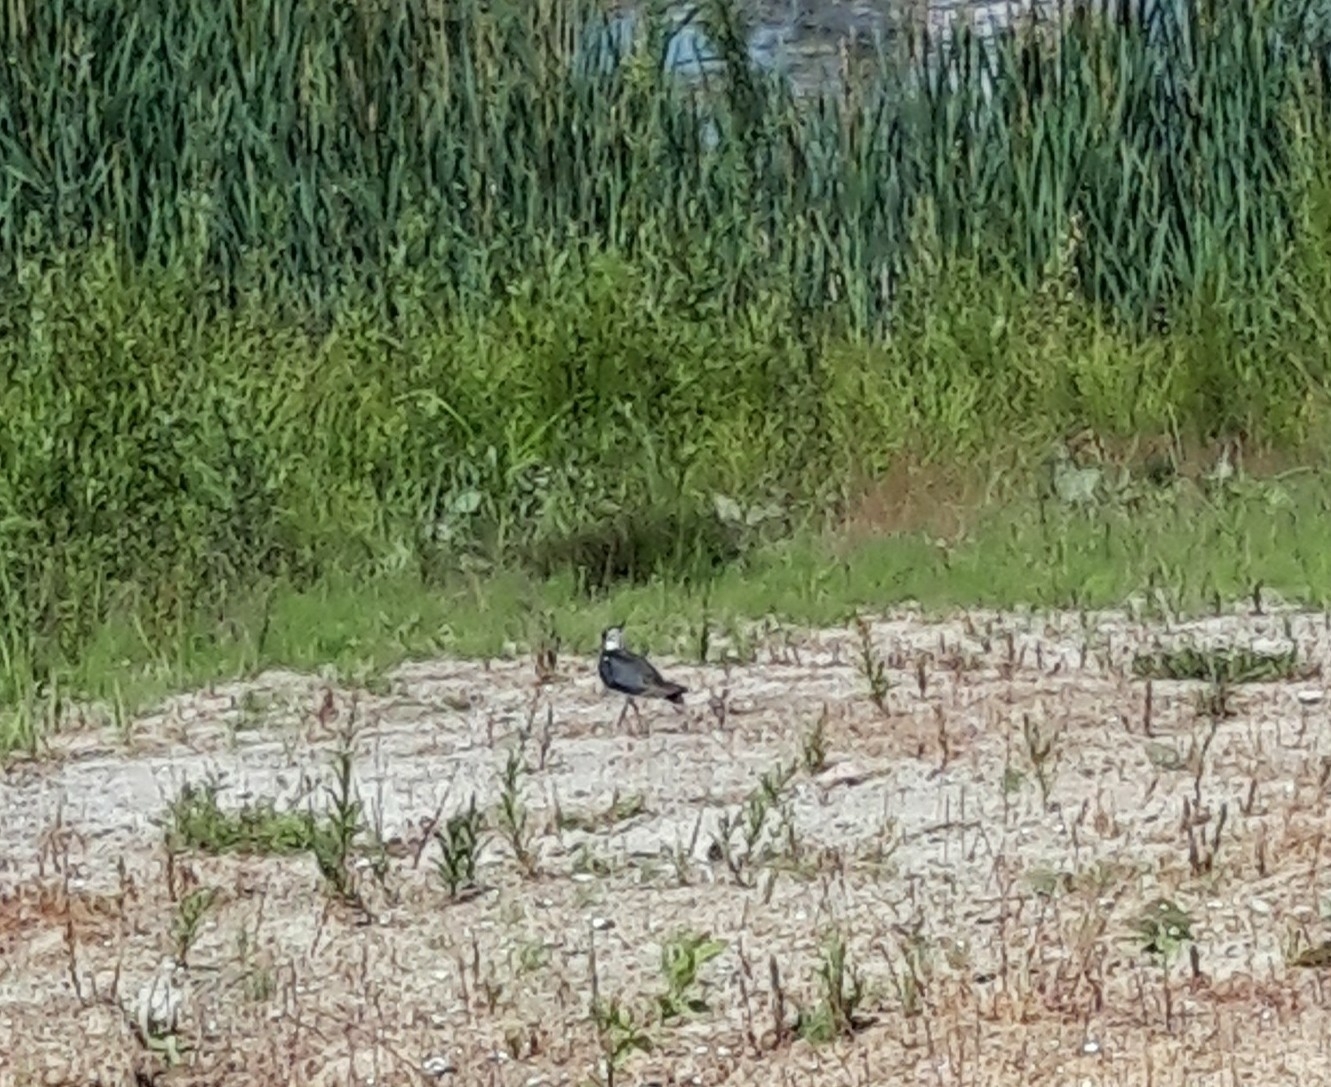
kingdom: Animalia
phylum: Chordata
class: Aves
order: Charadriiformes
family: Charadriidae
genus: Vanellus
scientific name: Vanellus vanellus
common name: Northern lapwing
